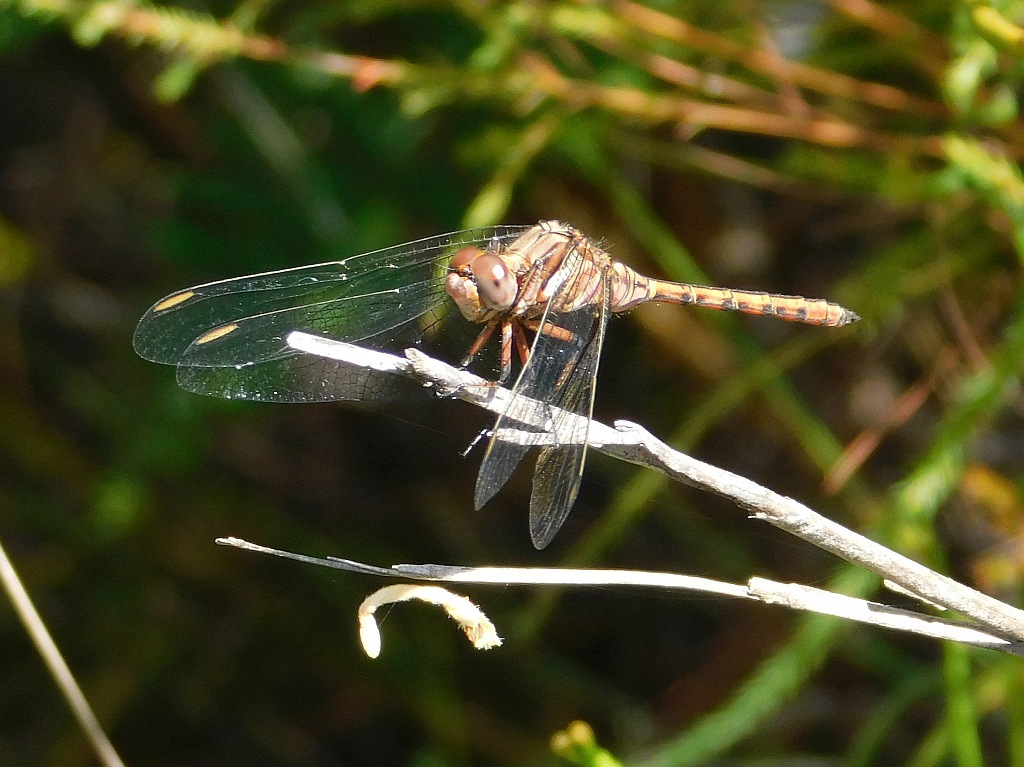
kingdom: Animalia
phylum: Arthropoda
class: Insecta
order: Odonata
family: Libellulidae
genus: Orthetrum
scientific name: Orthetrum julia
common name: Julia skimmer
